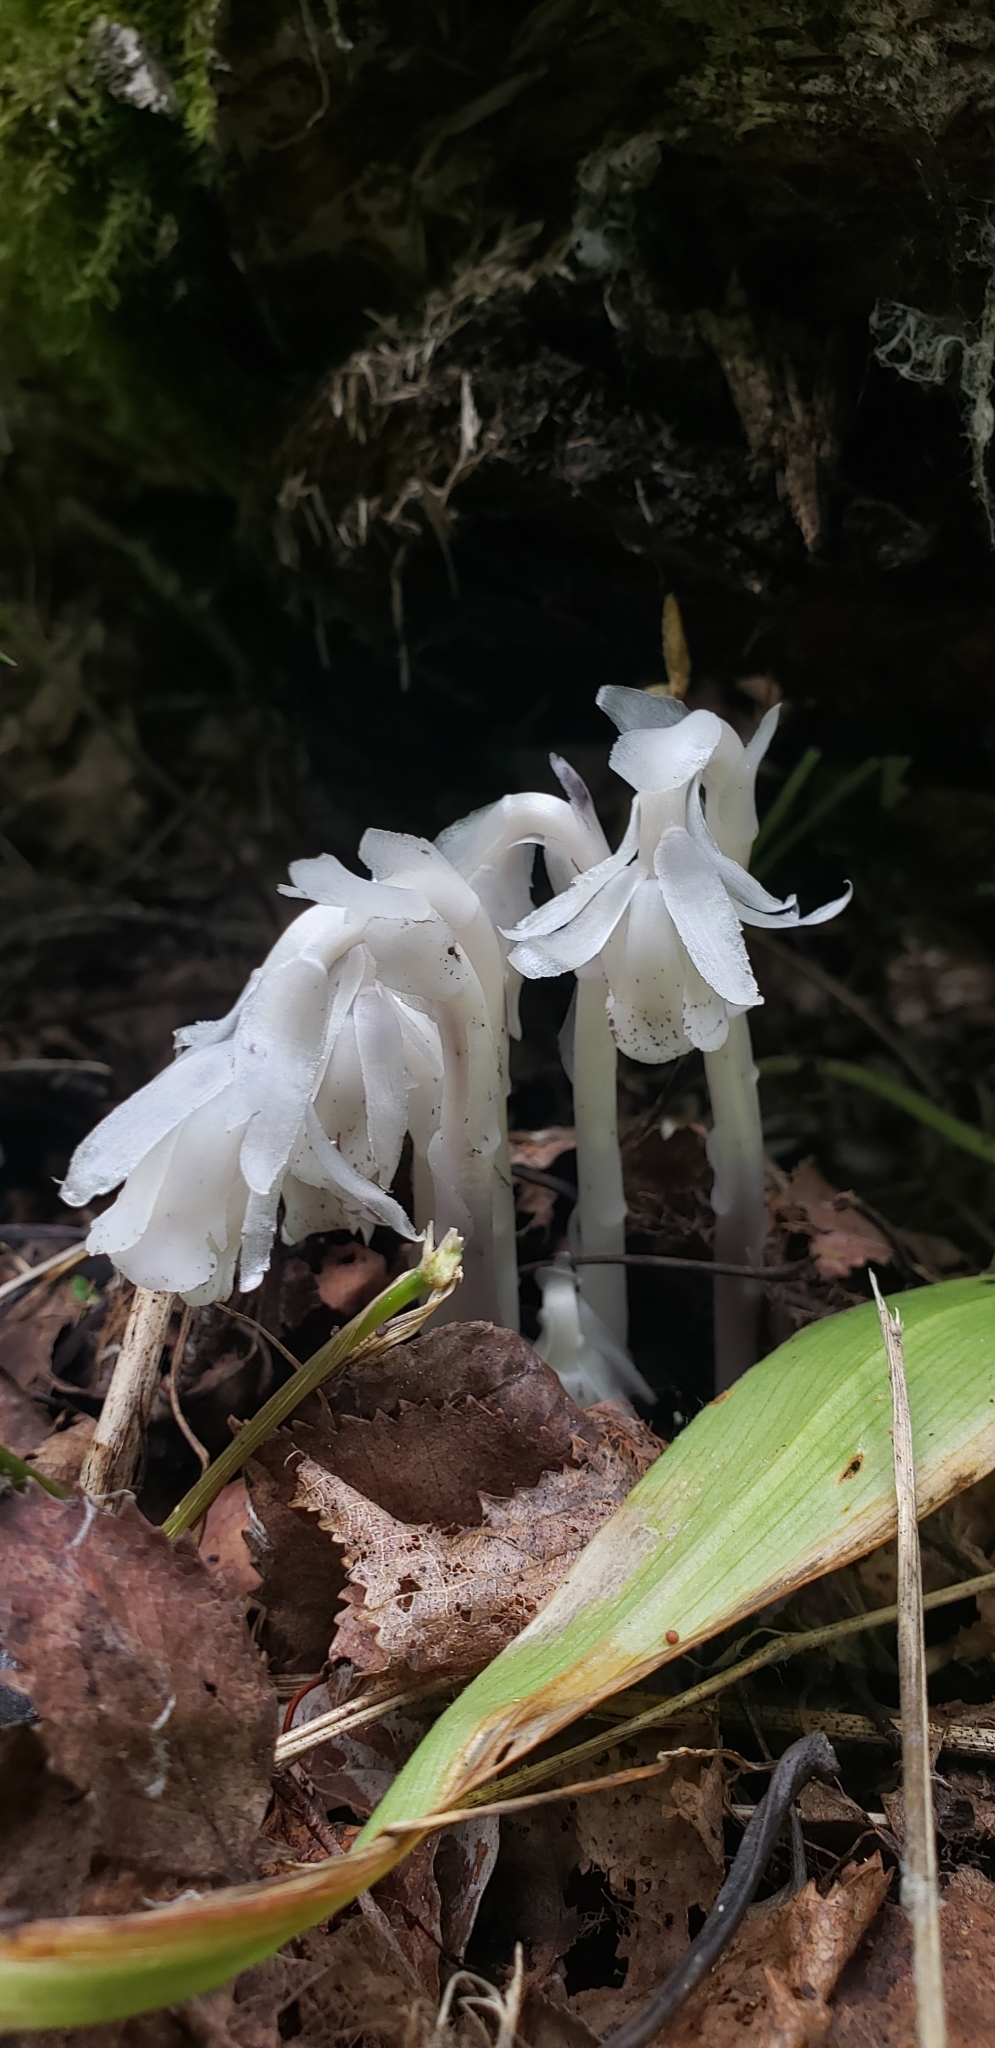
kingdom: Plantae
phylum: Tracheophyta
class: Magnoliopsida
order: Ericales
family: Ericaceae
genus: Monotropa
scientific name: Monotropa uniflora
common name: Convulsion root
